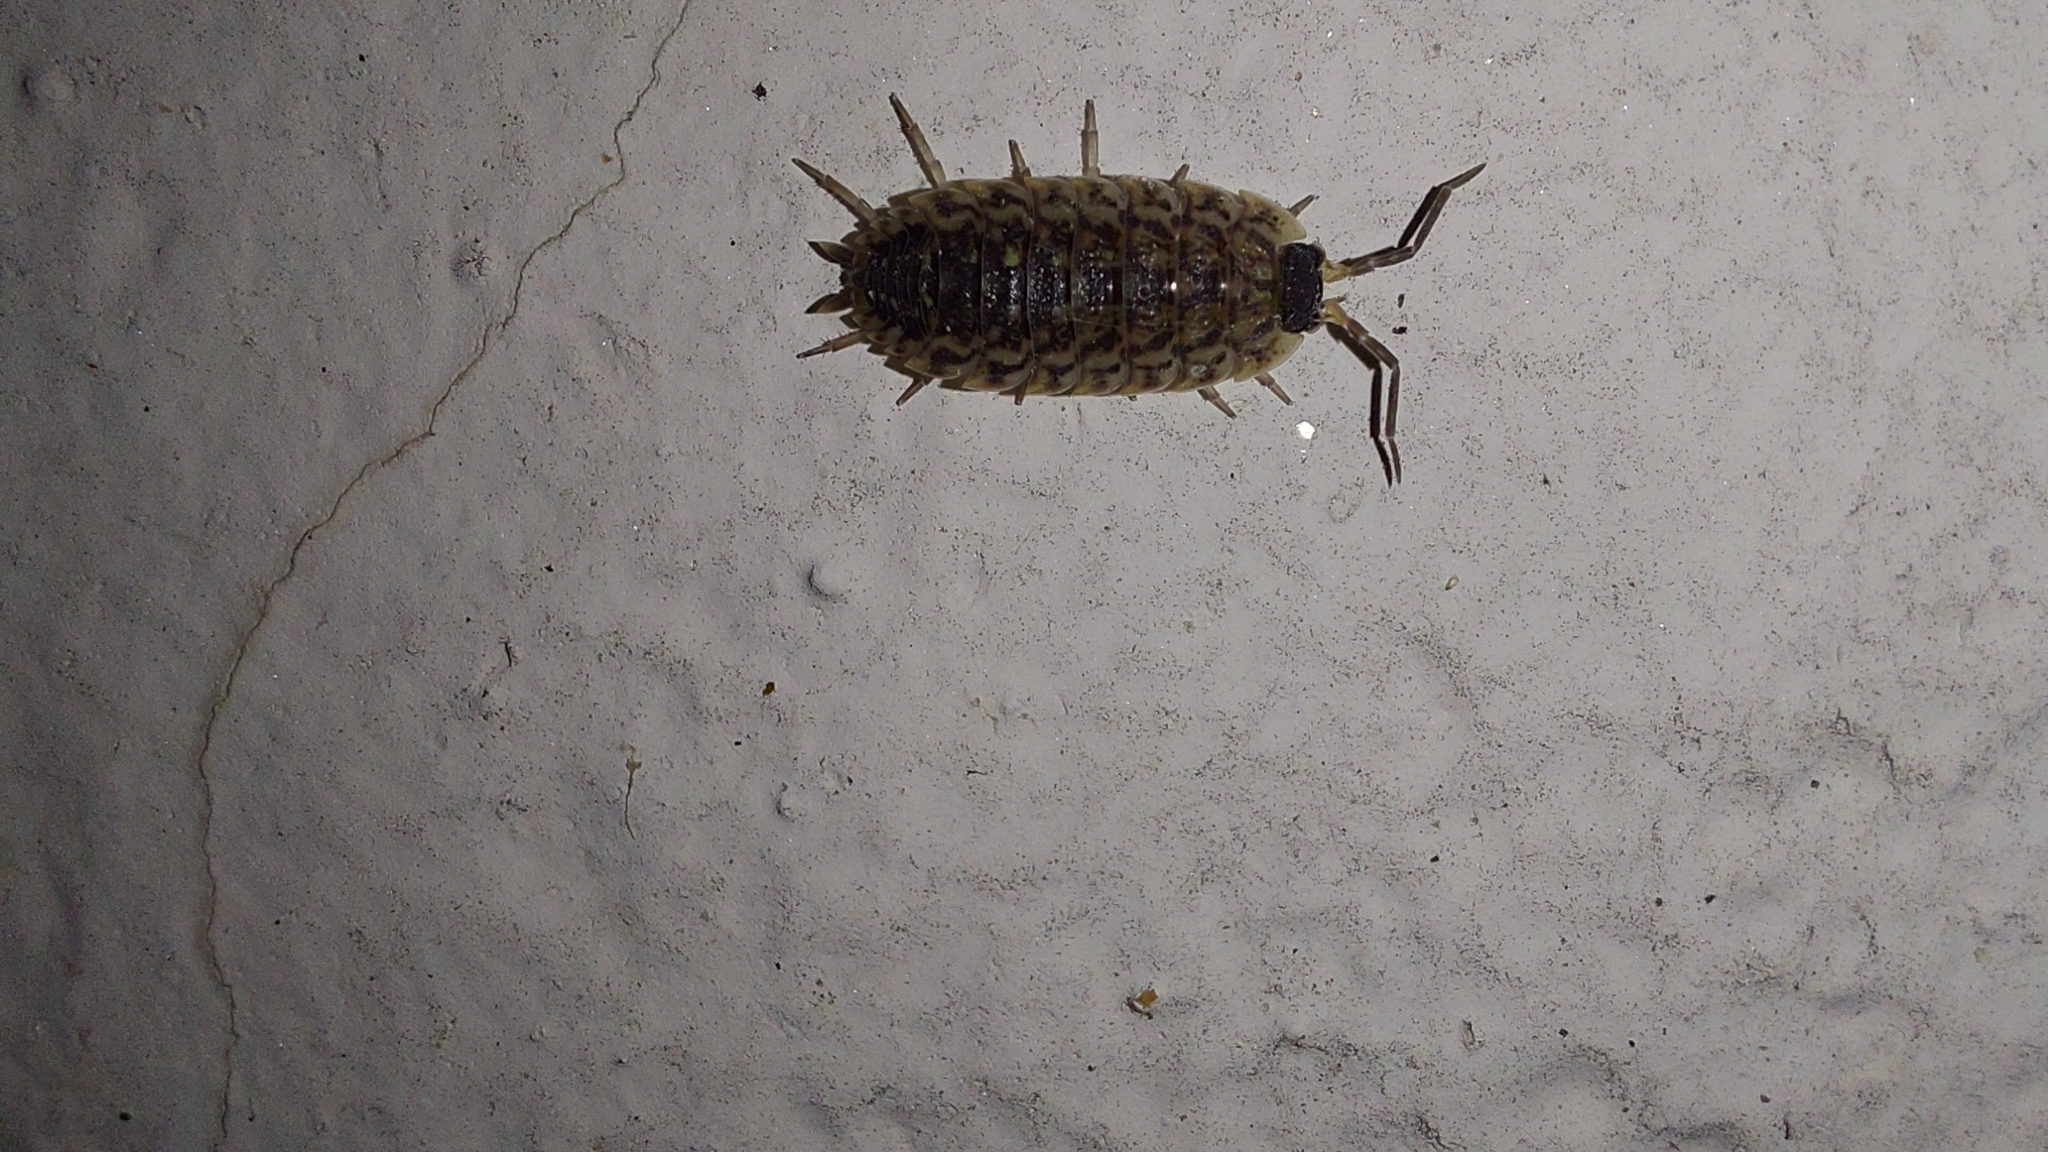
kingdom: Animalia
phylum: Arthropoda
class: Malacostraca
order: Isopoda
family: Porcellionidae
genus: Porcellio
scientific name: Porcellio spinicornis
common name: Painted woodlouse
